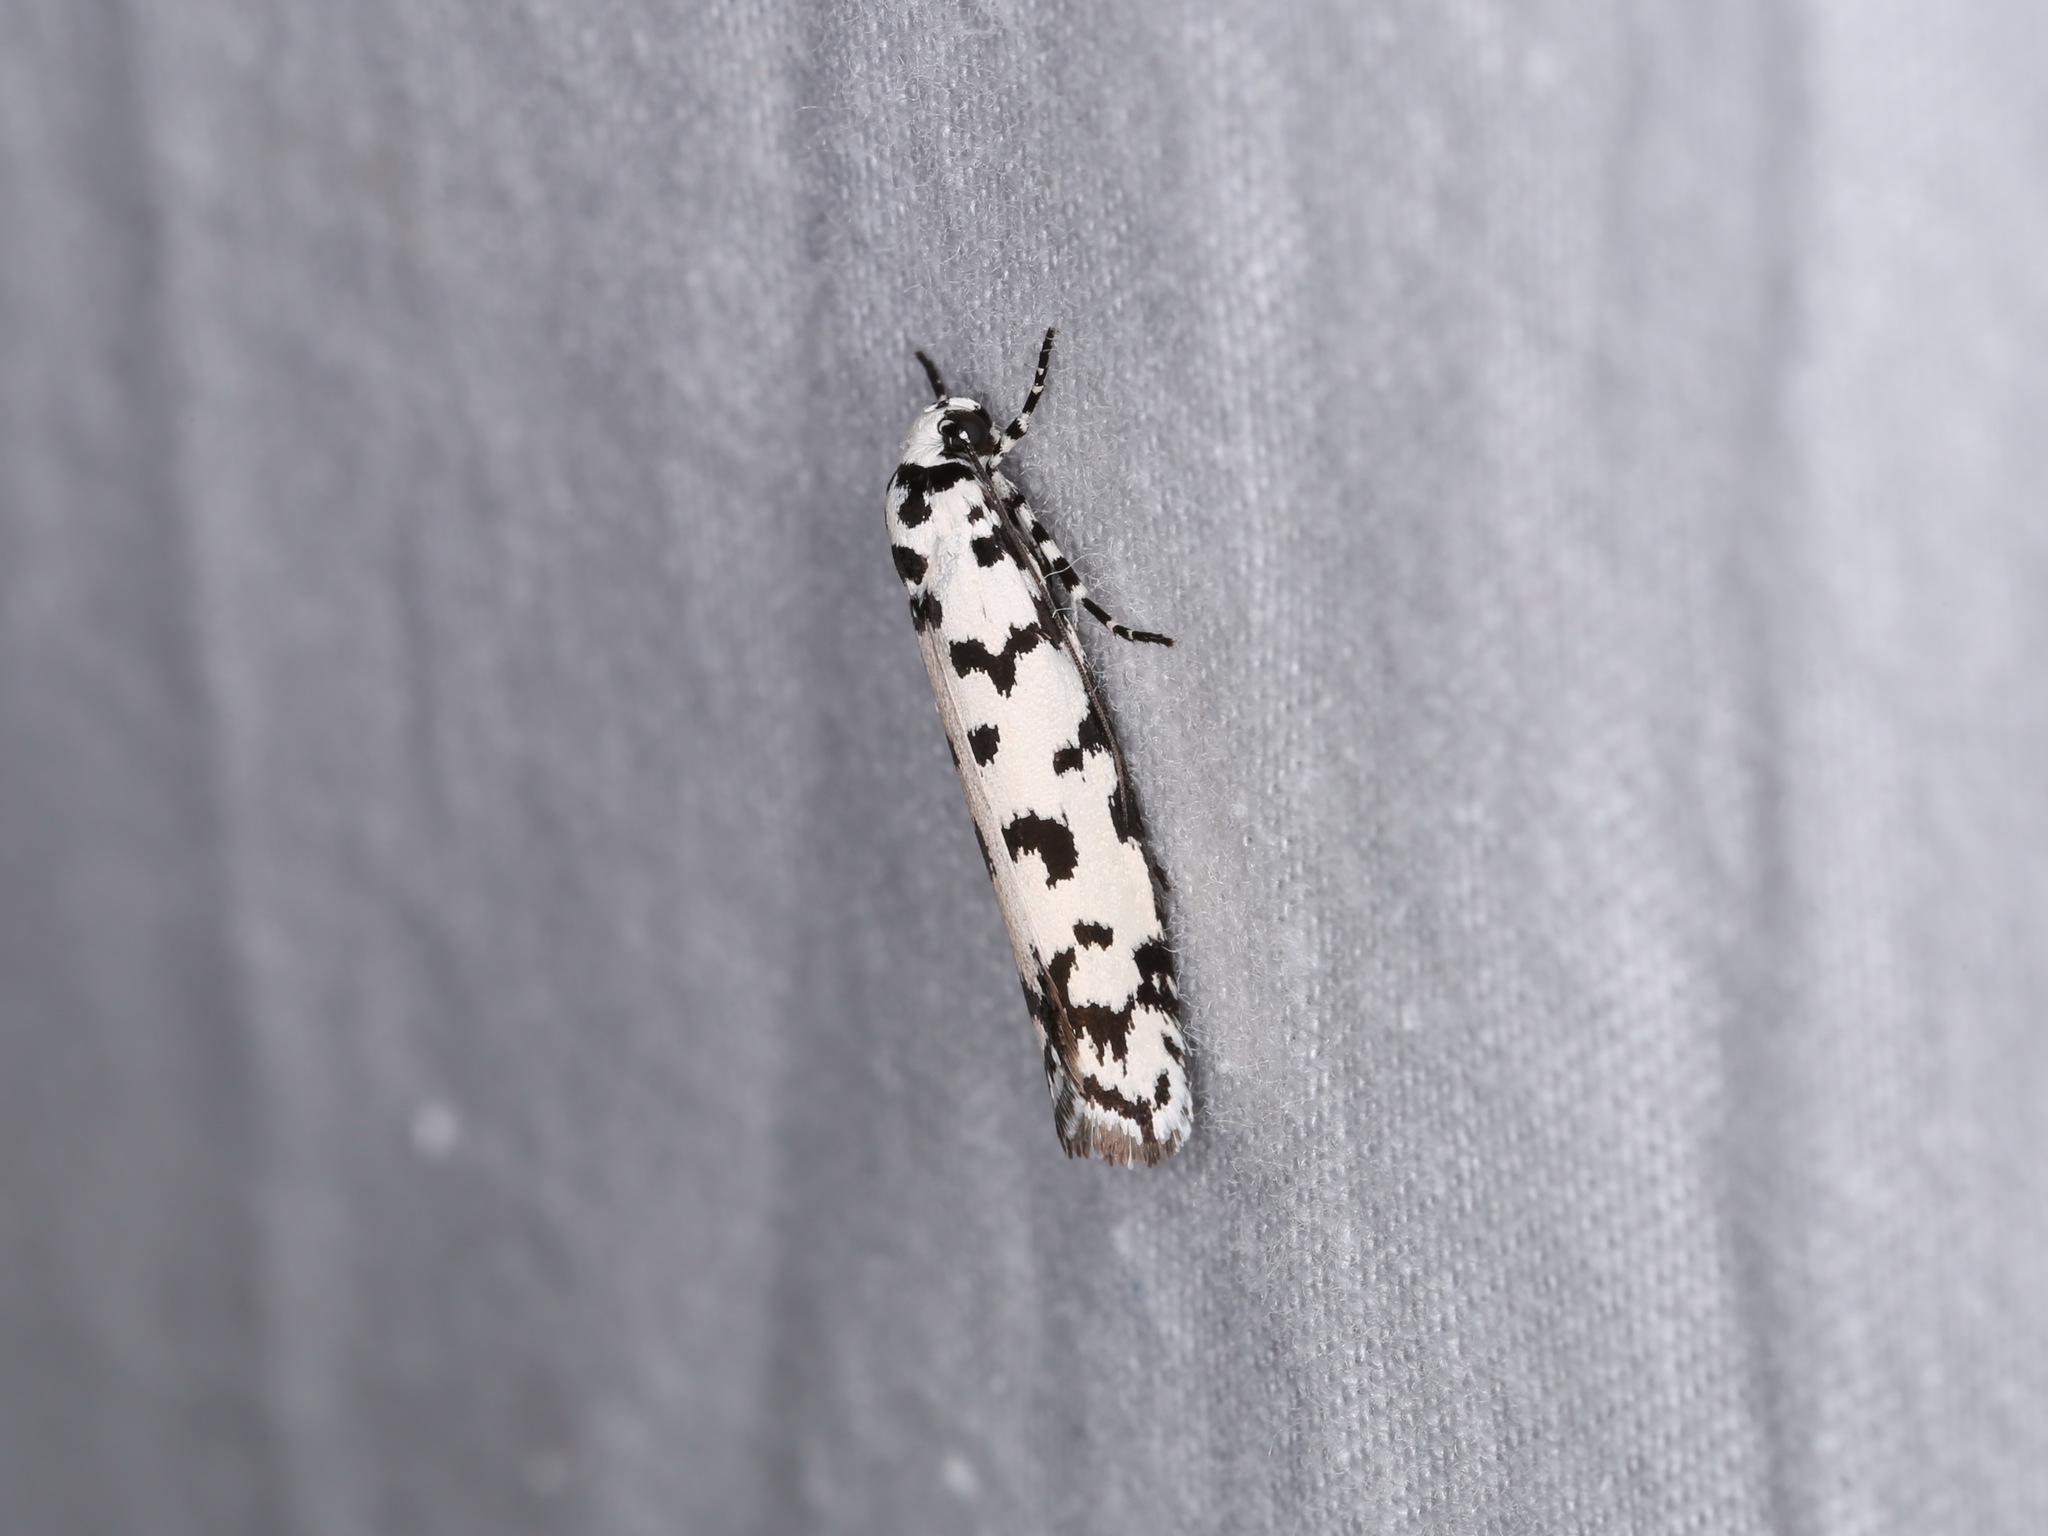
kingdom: Animalia
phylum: Arthropoda
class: Insecta
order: Lepidoptera
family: Ethmiidae
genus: Ethmia
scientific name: Ethmia eupostica
